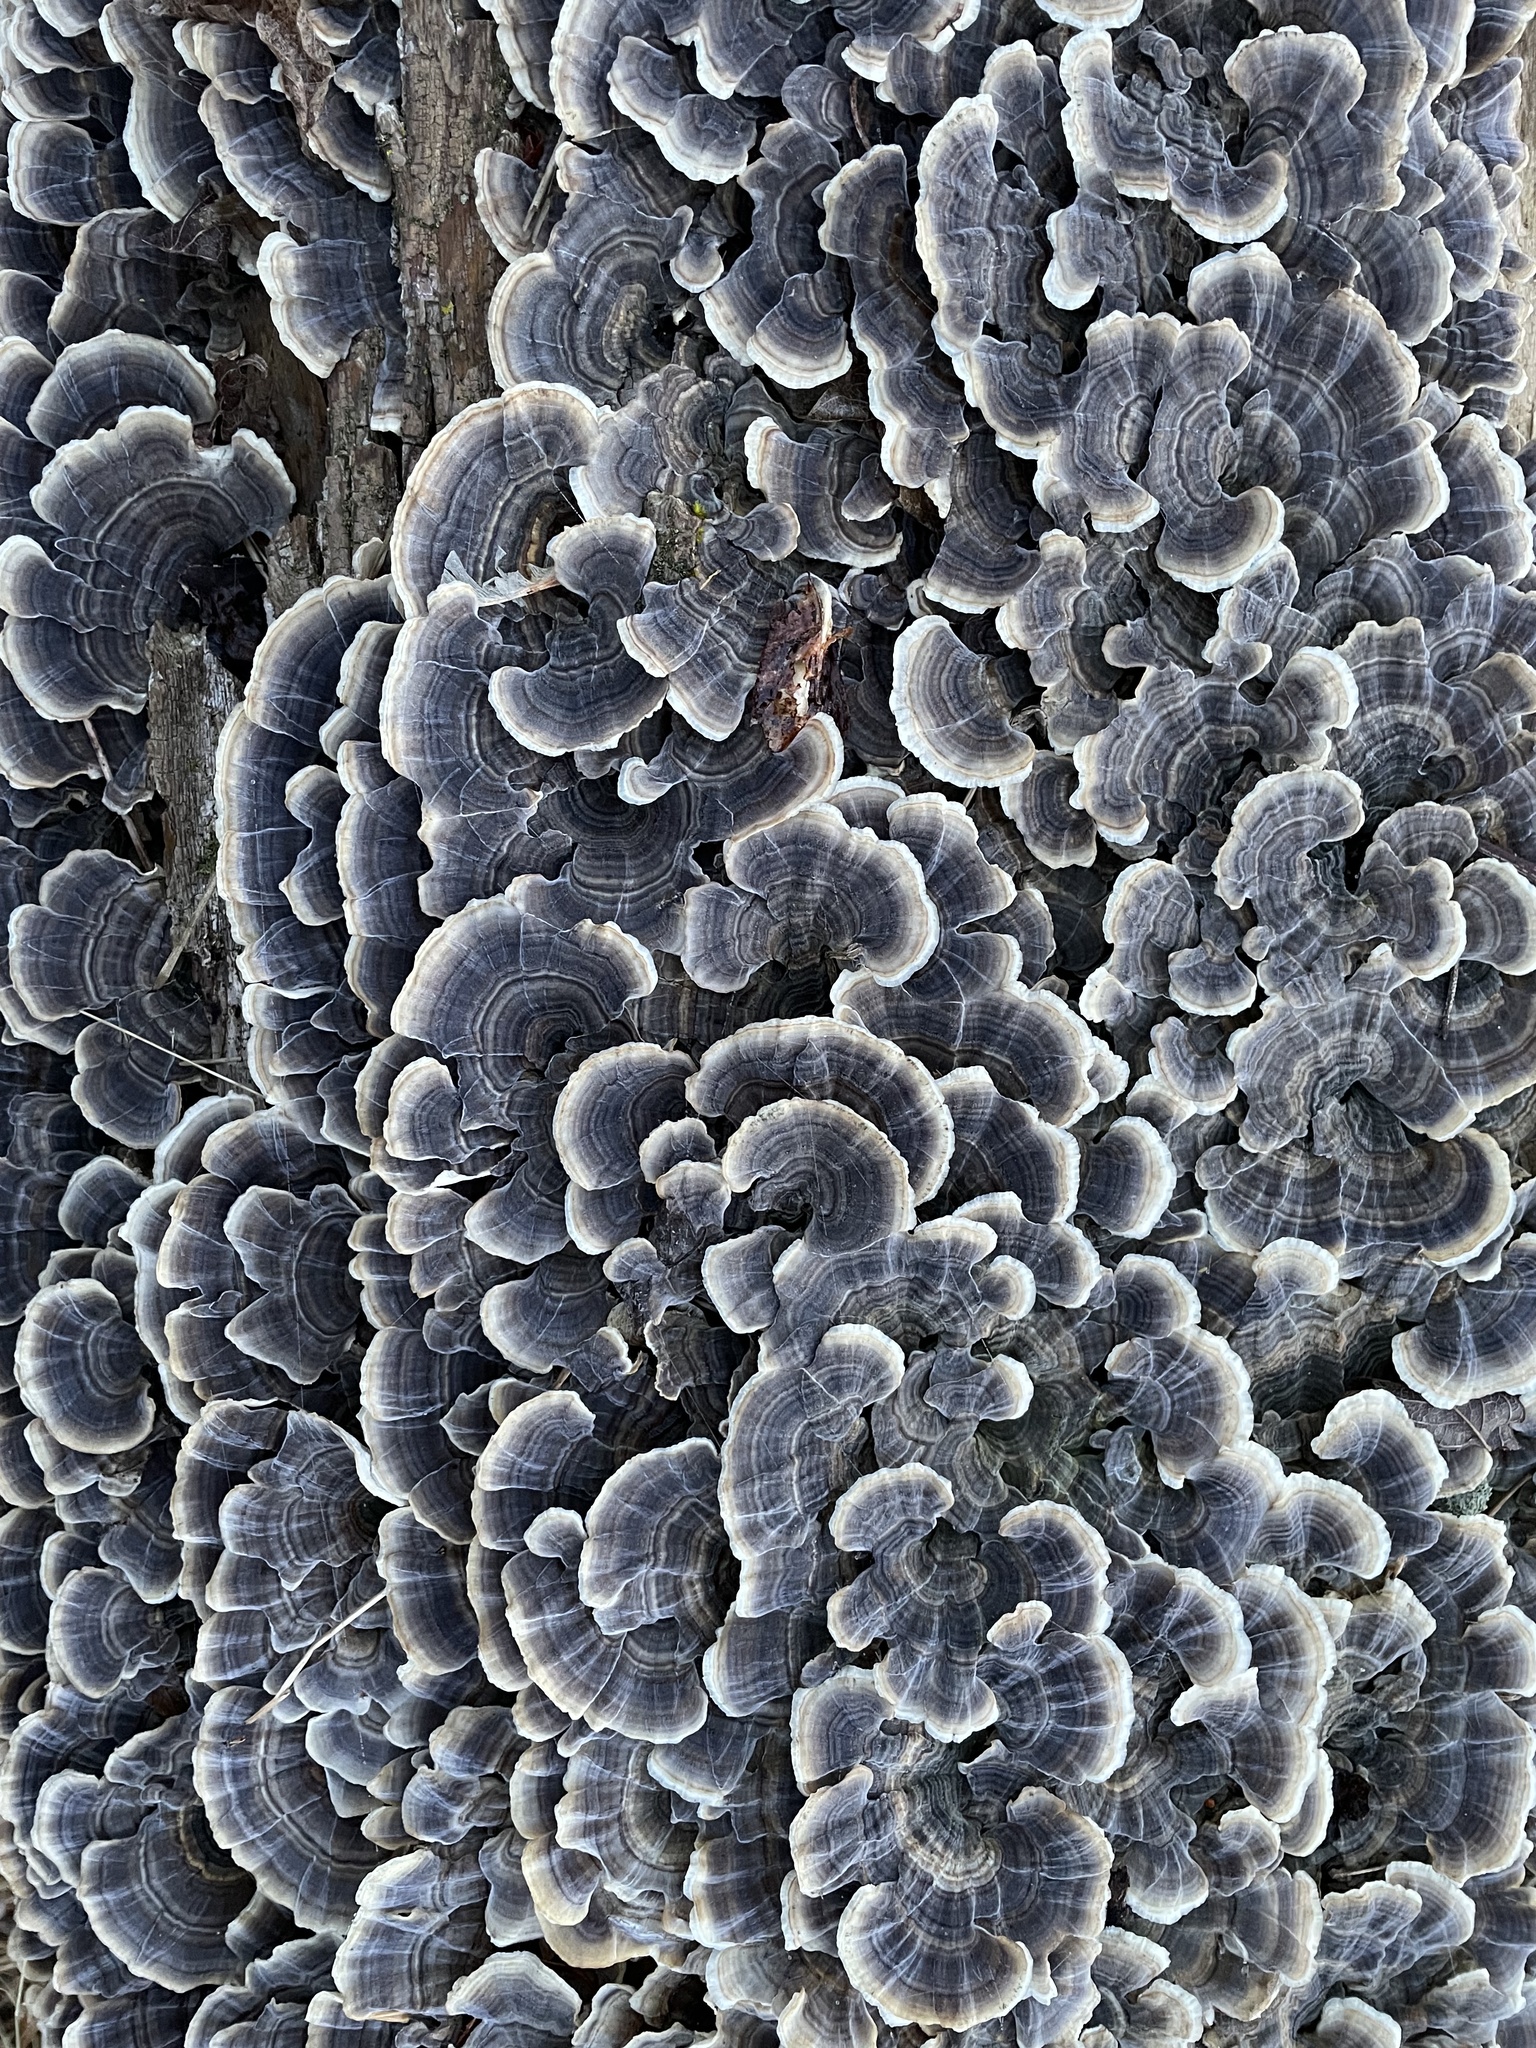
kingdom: Fungi
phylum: Basidiomycota
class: Agaricomycetes
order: Polyporales
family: Polyporaceae
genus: Trametes
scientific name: Trametes versicolor
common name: Turkeytail
